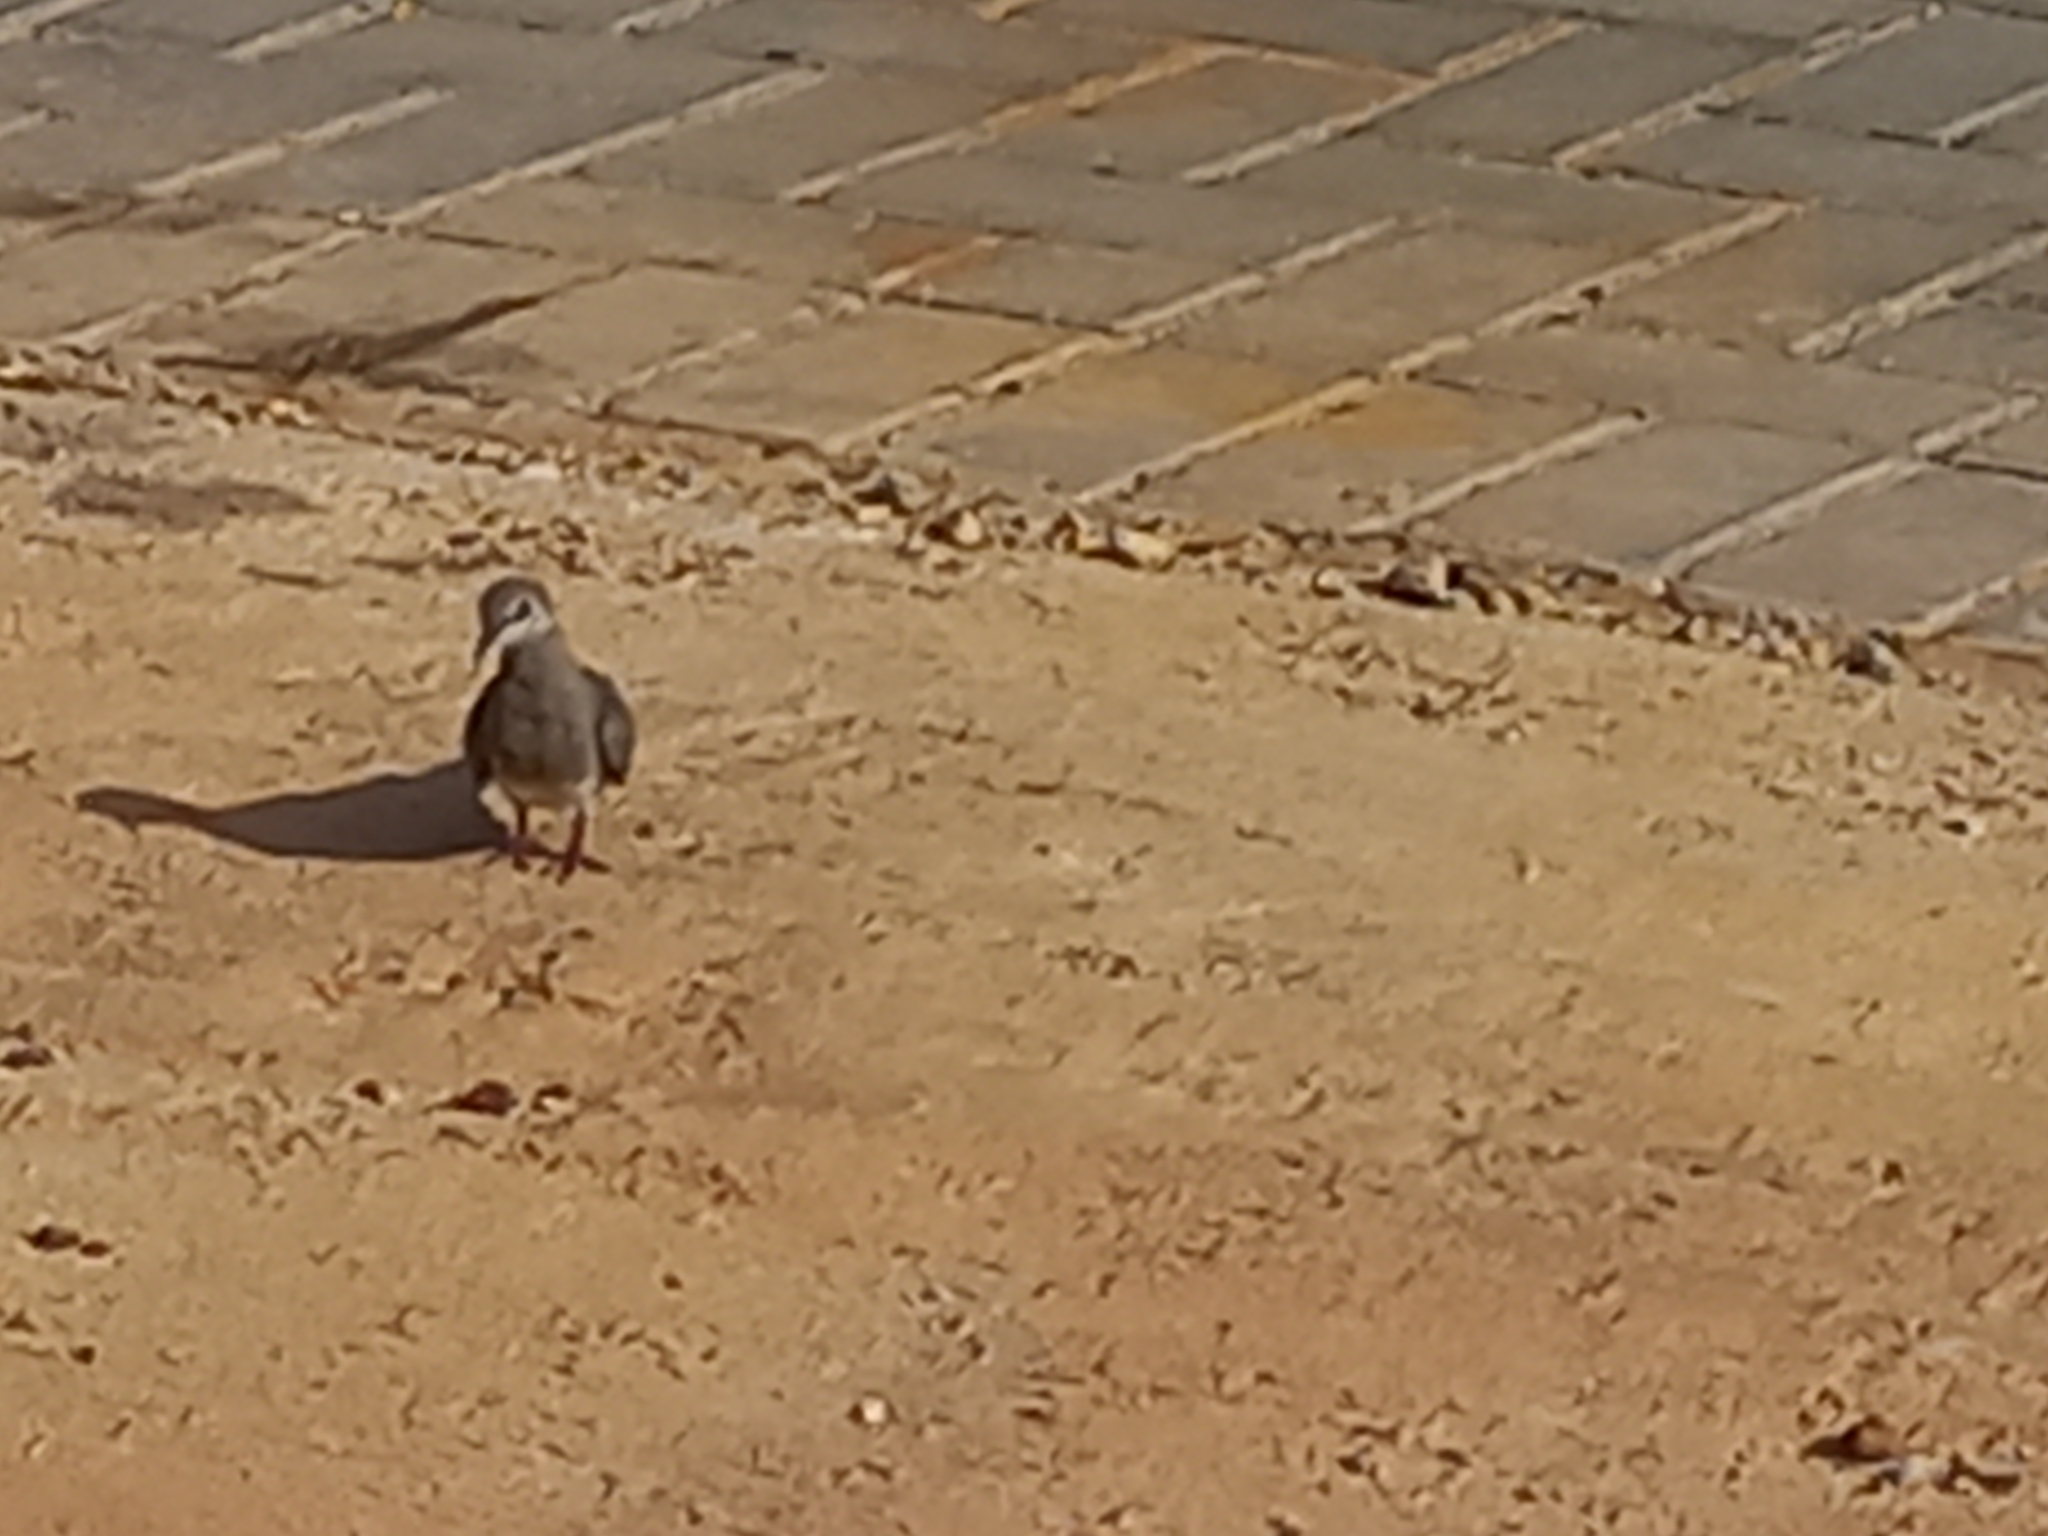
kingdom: Animalia
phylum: Chordata
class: Aves
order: Columbiformes
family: Columbidae
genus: Oena
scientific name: Oena capensis
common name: Namaqua dove
